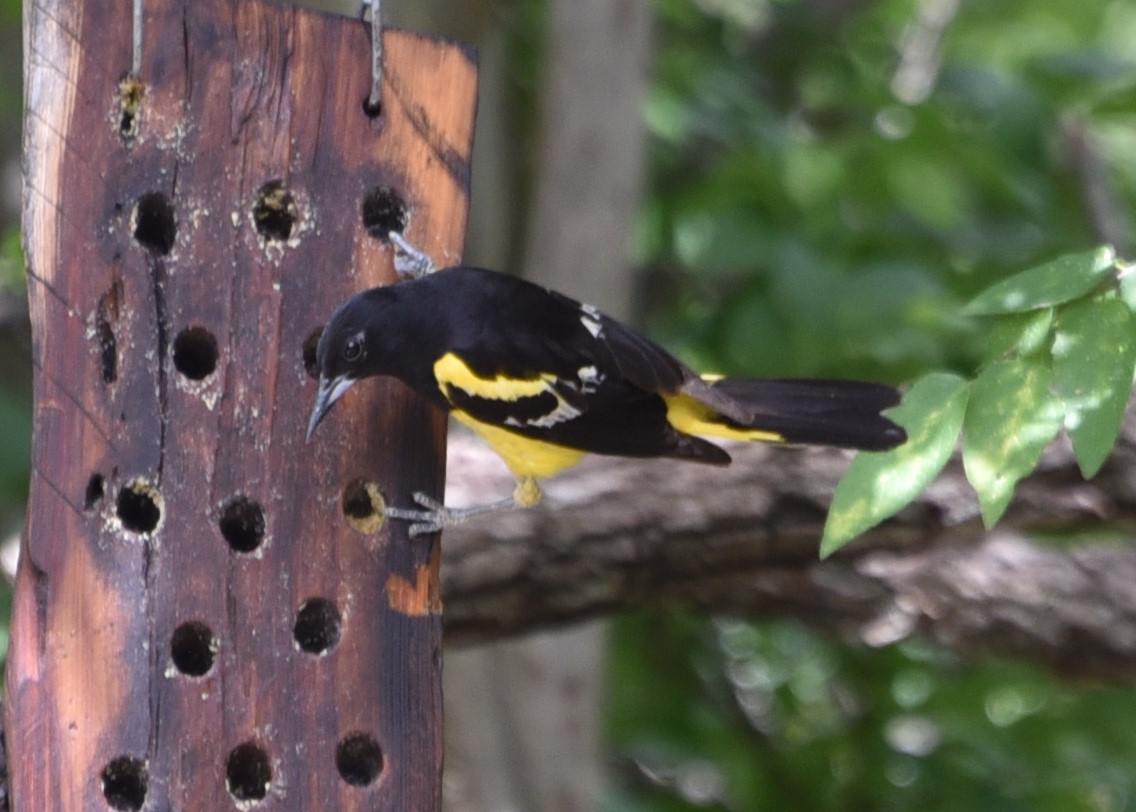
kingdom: Animalia
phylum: Chordata
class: Aves
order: Passeriformes
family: Icteridae
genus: Icterus
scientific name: Icterus parisorum
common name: Scott's oriole
